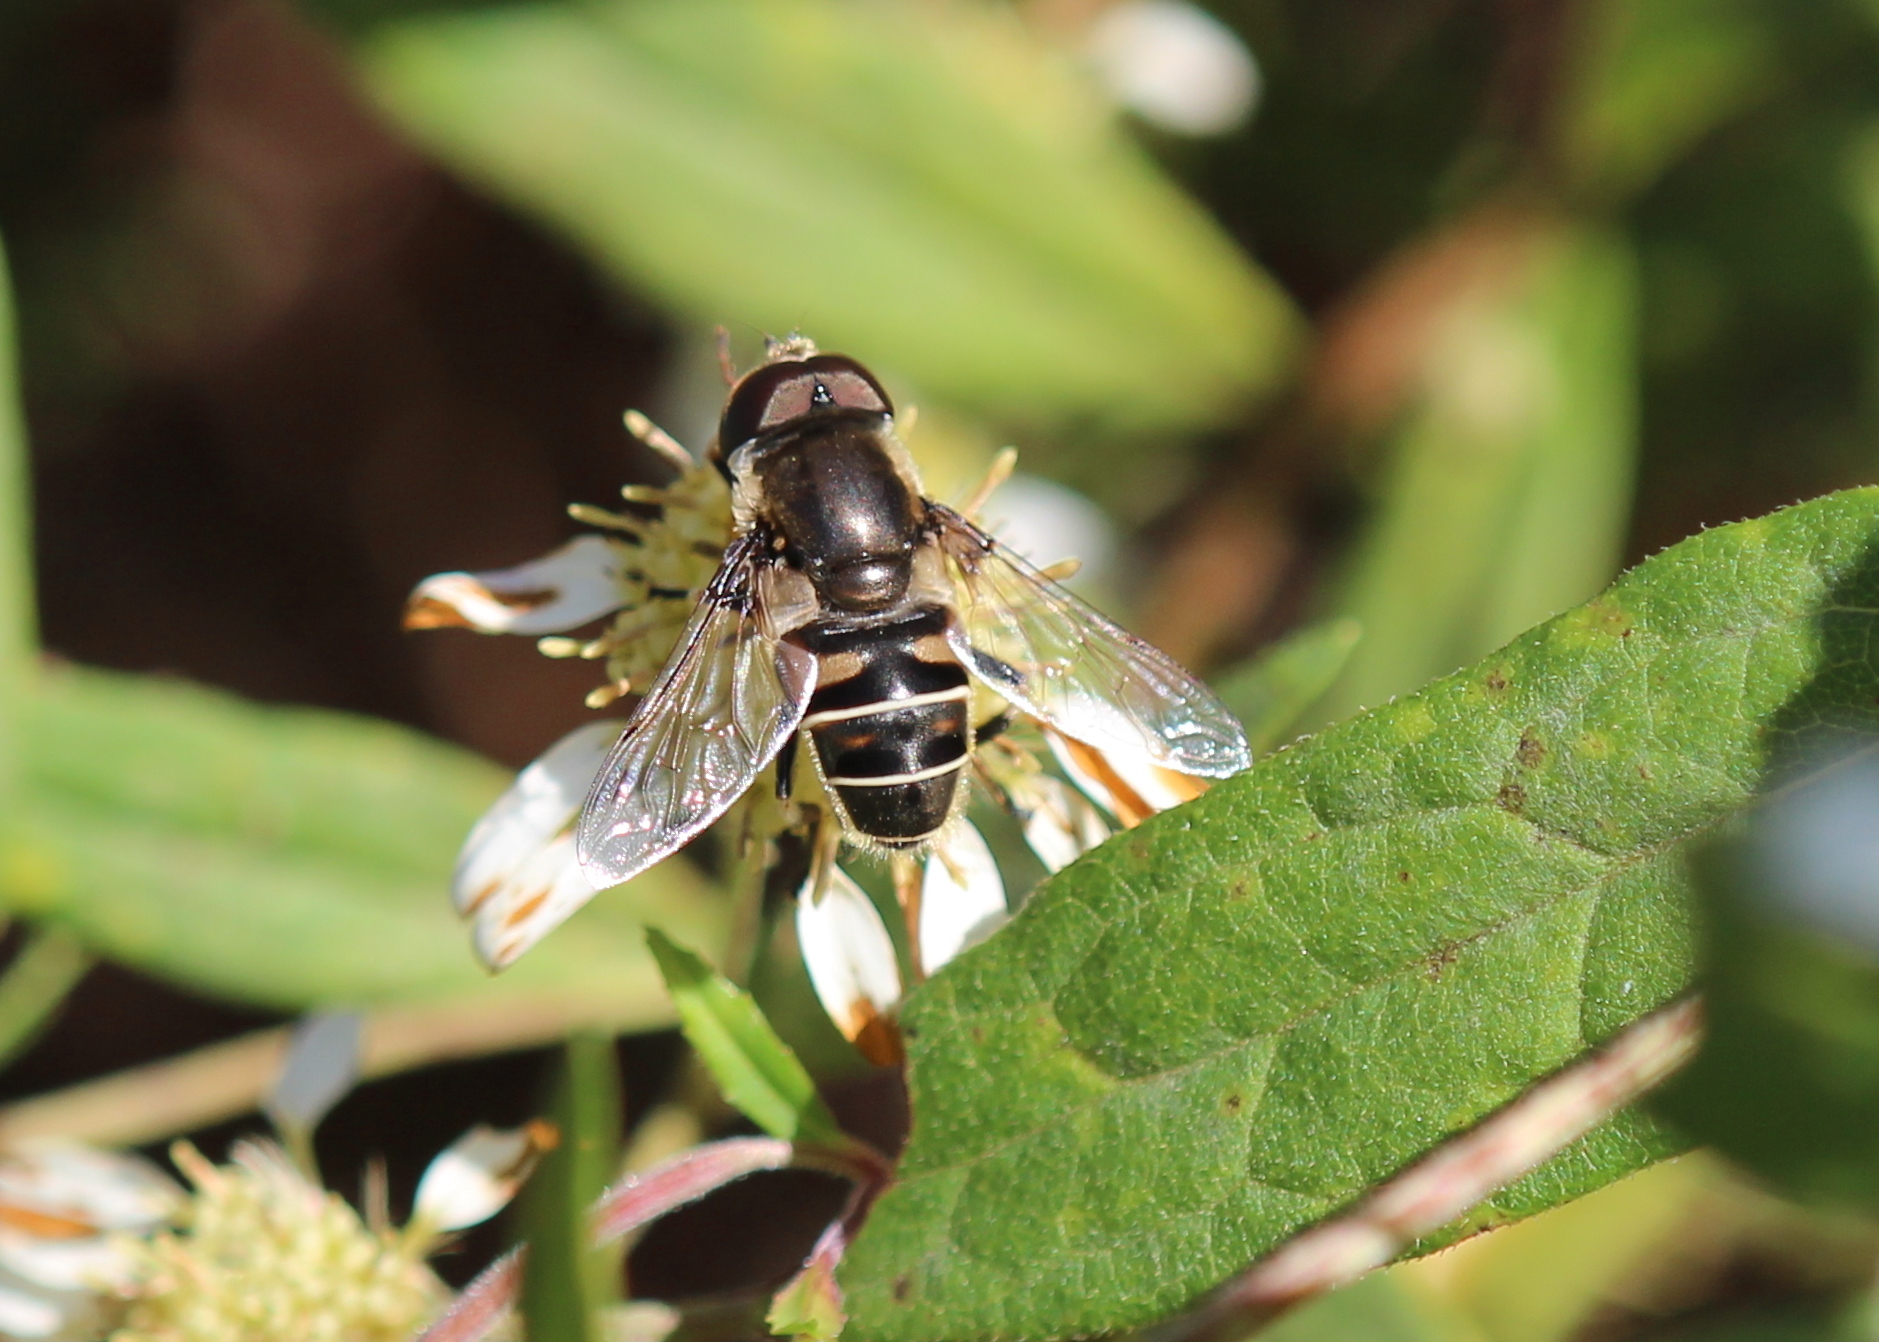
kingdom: Animalia
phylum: Arthropoda
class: Insecta
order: Diptera
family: Syrphidae
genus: Eristalis
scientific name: Eristalis dimidiata
